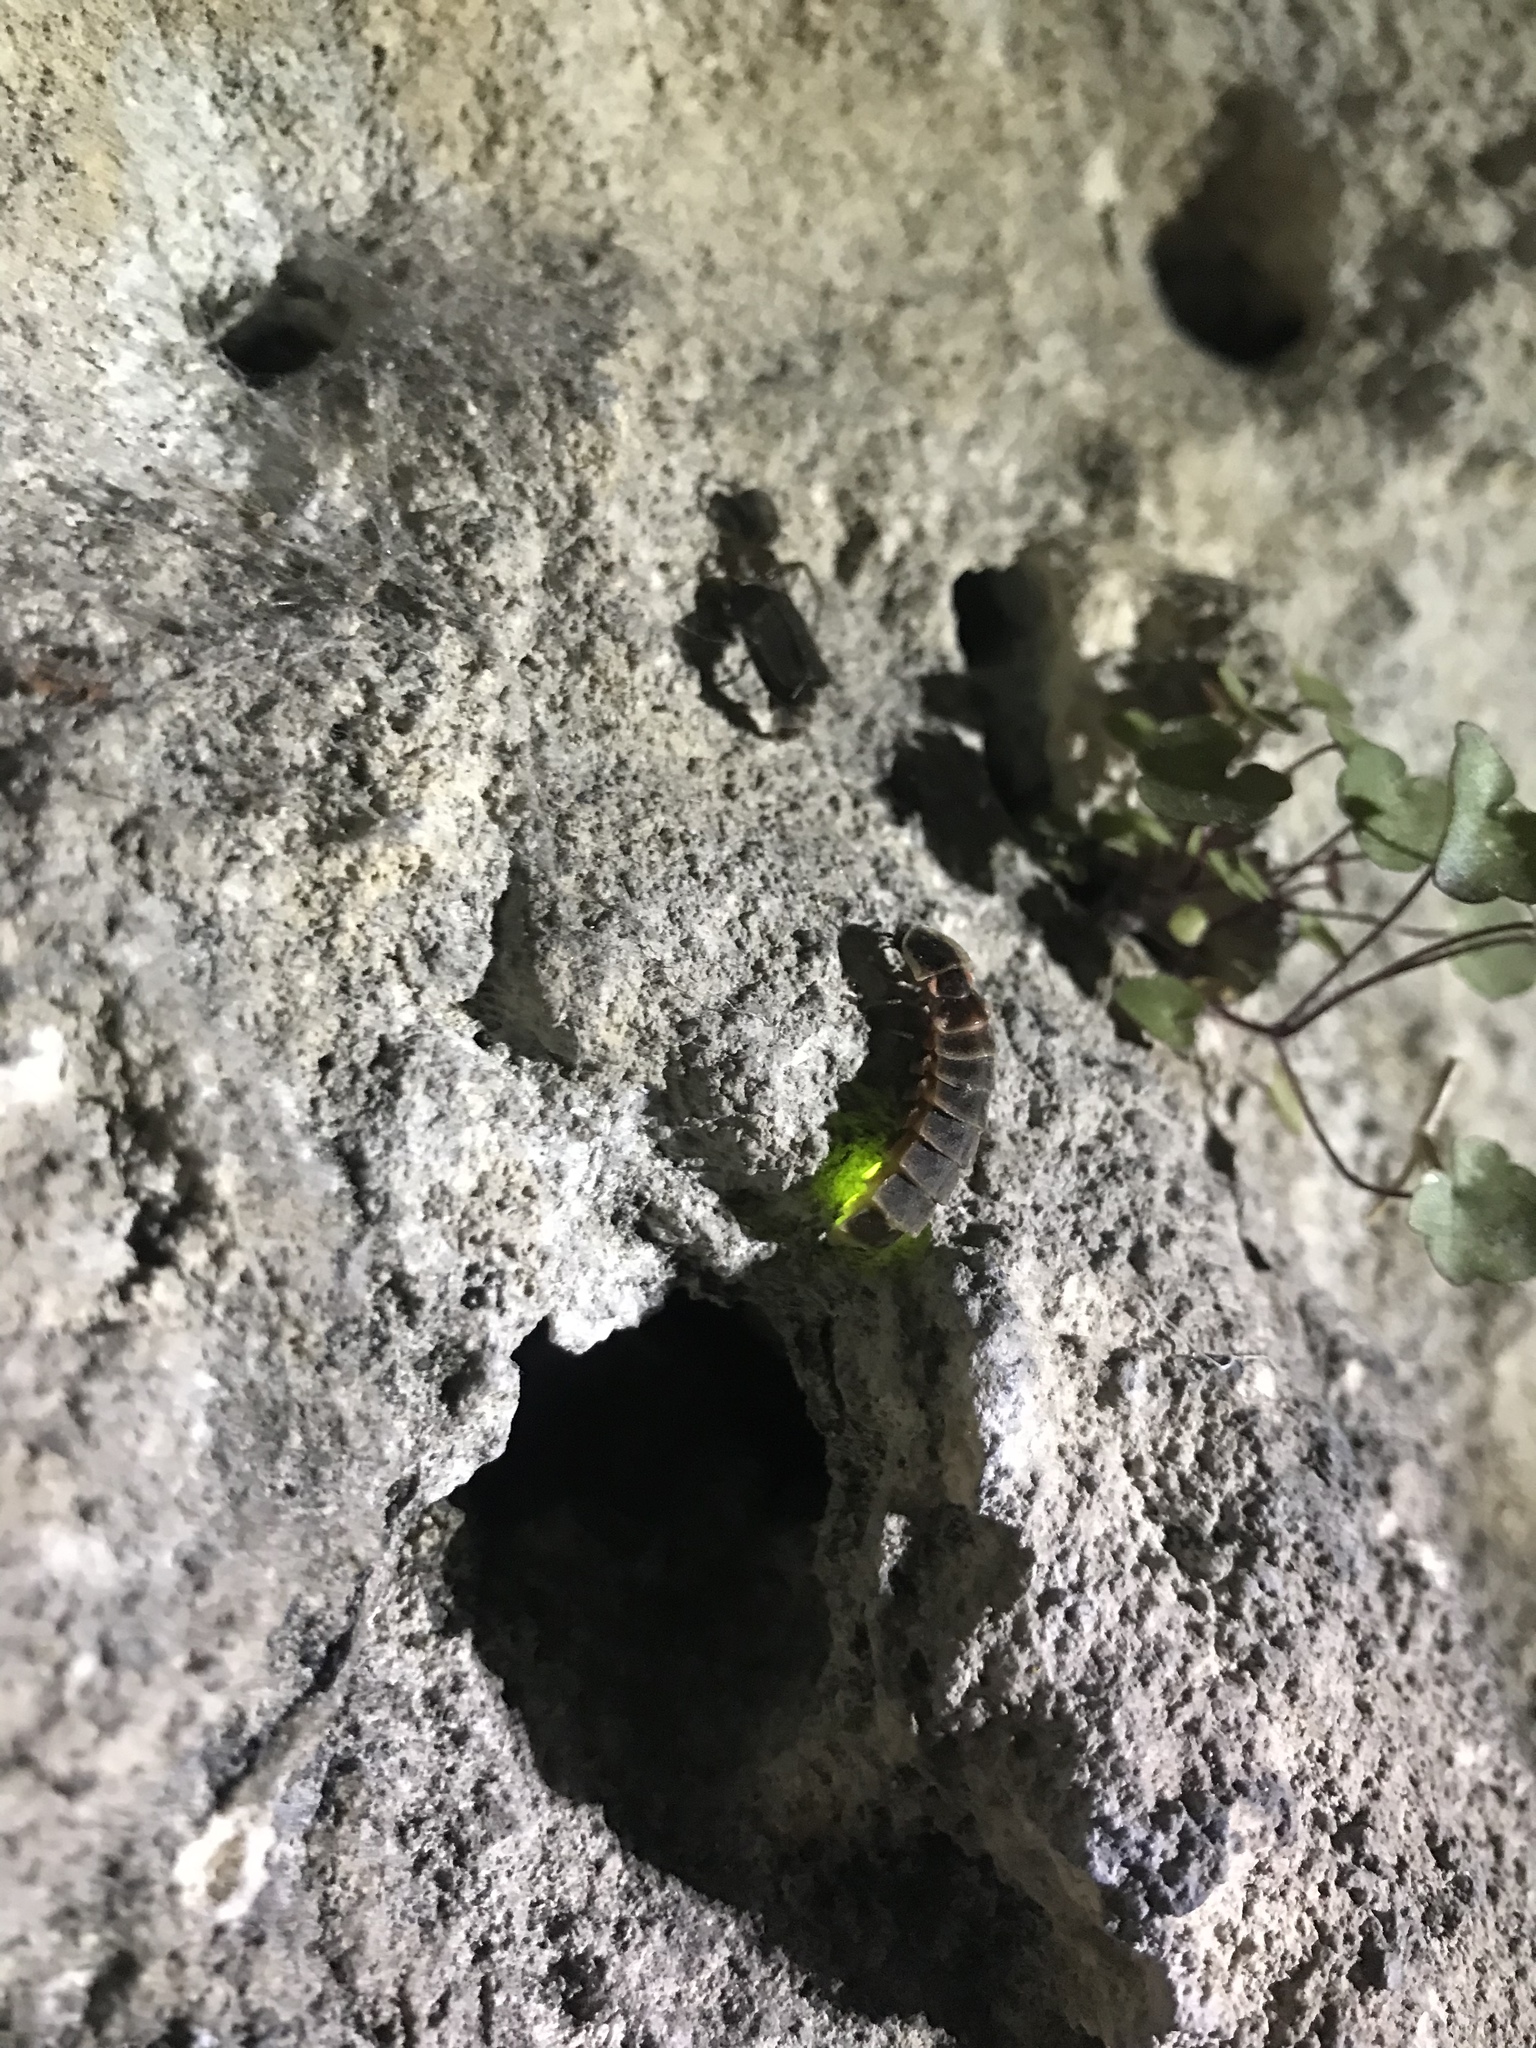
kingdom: Animalia
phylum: Arthropoda
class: Insecta
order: Coleoptera
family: Lampyridae
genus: Lampyris
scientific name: Lampyris noctiluca
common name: Glow-worm
